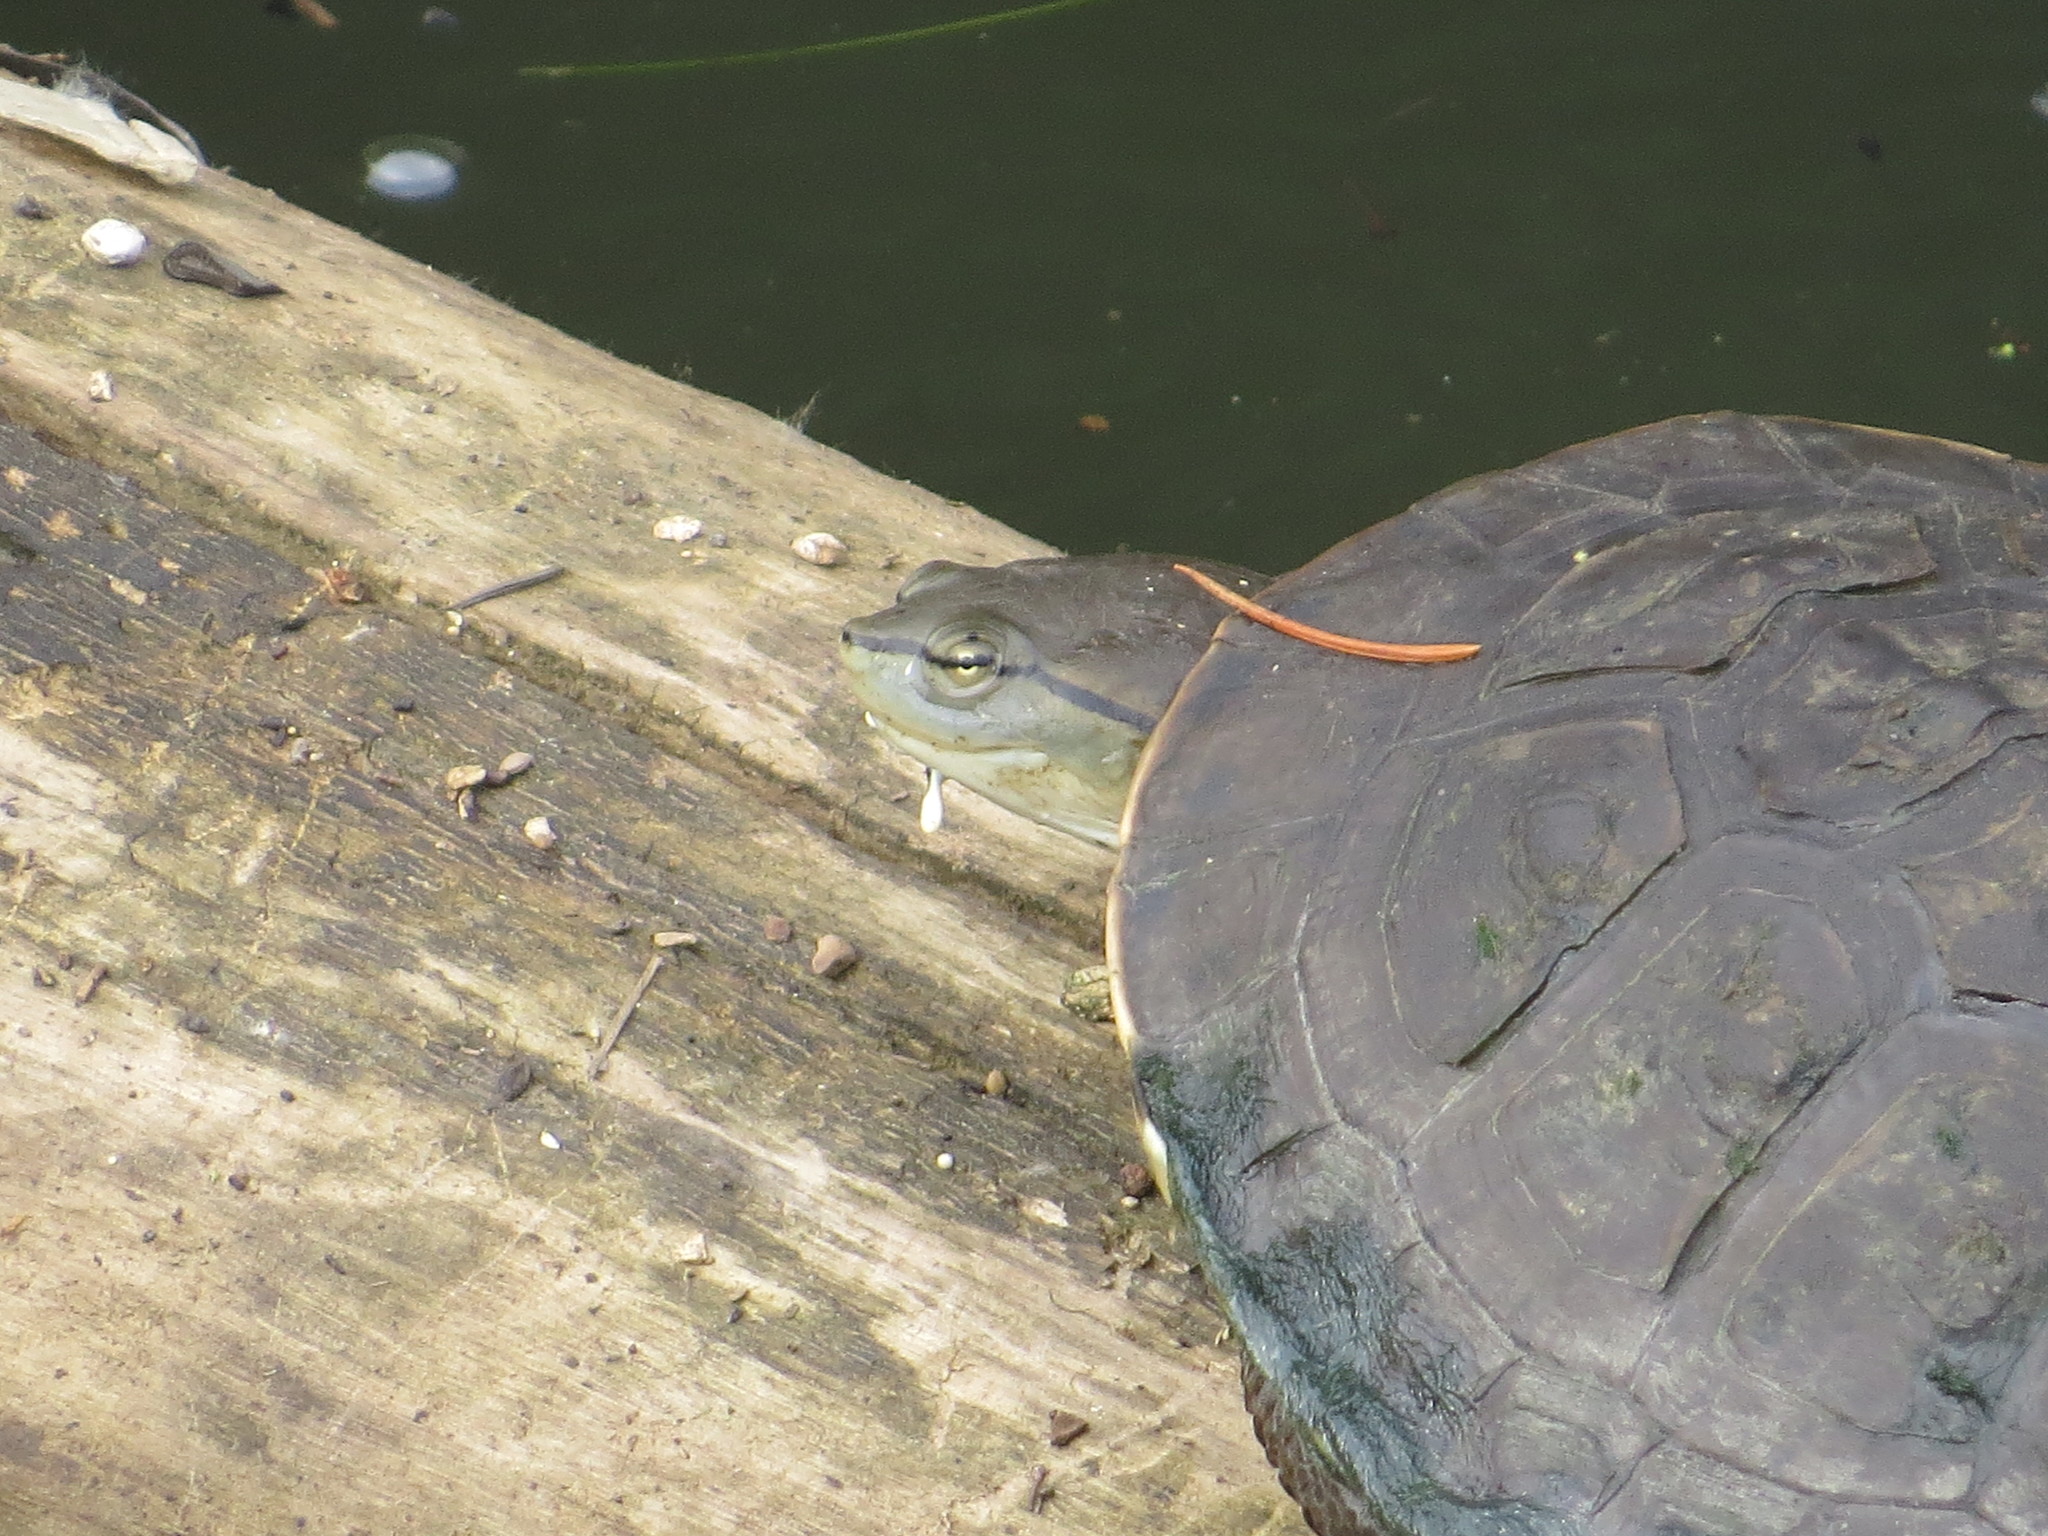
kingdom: Animalia
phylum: Chordata
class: Testudines
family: Chelidae
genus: Phrynops
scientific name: Phrynops hilarii
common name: Side-necked turtle of saint hillaire
